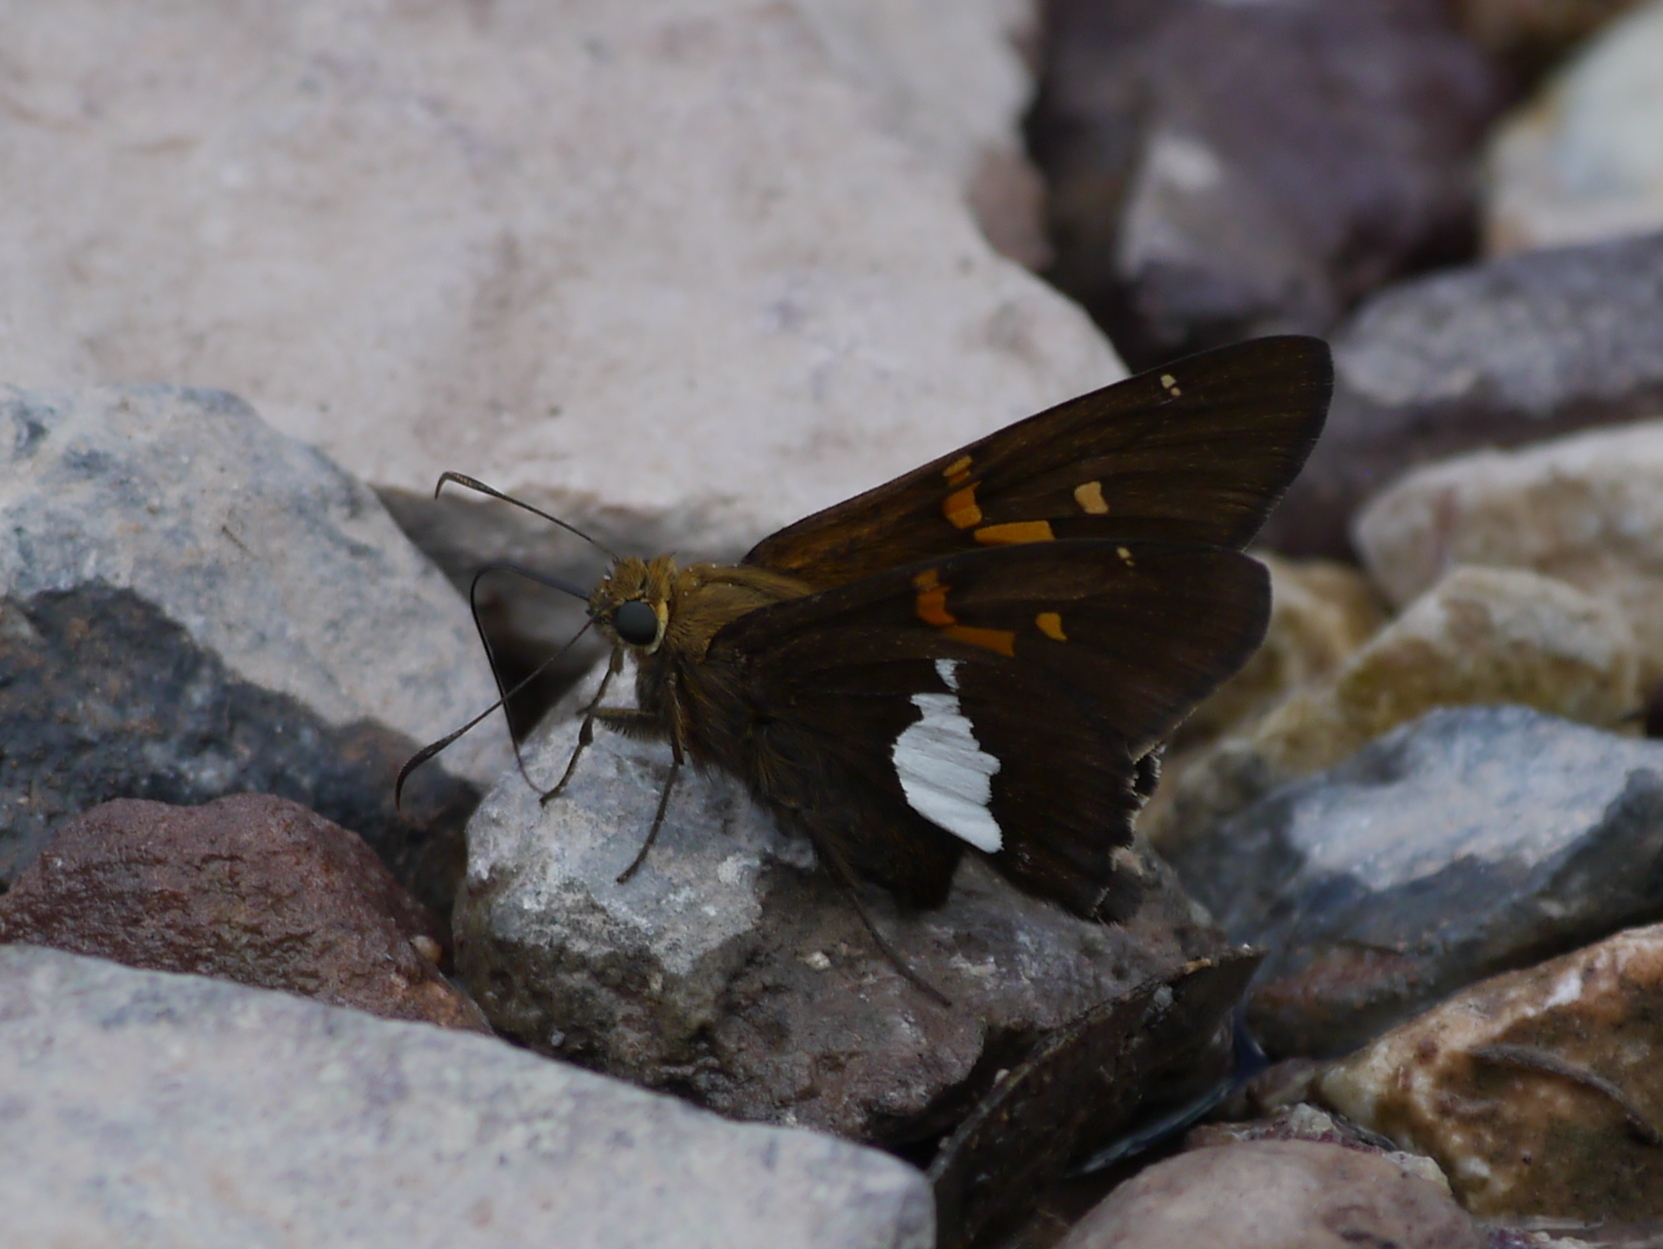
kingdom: Animalia
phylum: Arthropoda
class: Insecta
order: Lepidoptera
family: Hesperiidae
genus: Epargyreus
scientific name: Epargyreus clarus
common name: Silver-spotted skipper
